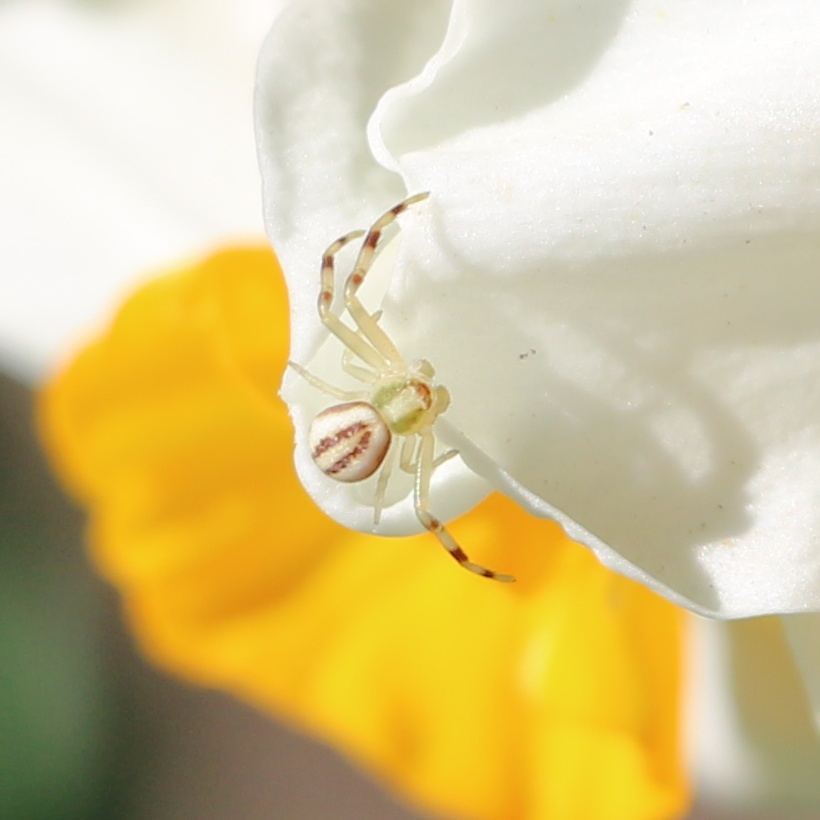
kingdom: Animalia
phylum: Arthropoda
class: Arachnida
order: Araneae
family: Thomisidae
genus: Misumena
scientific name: Misumena vatia
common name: Goldenrod crab spider
